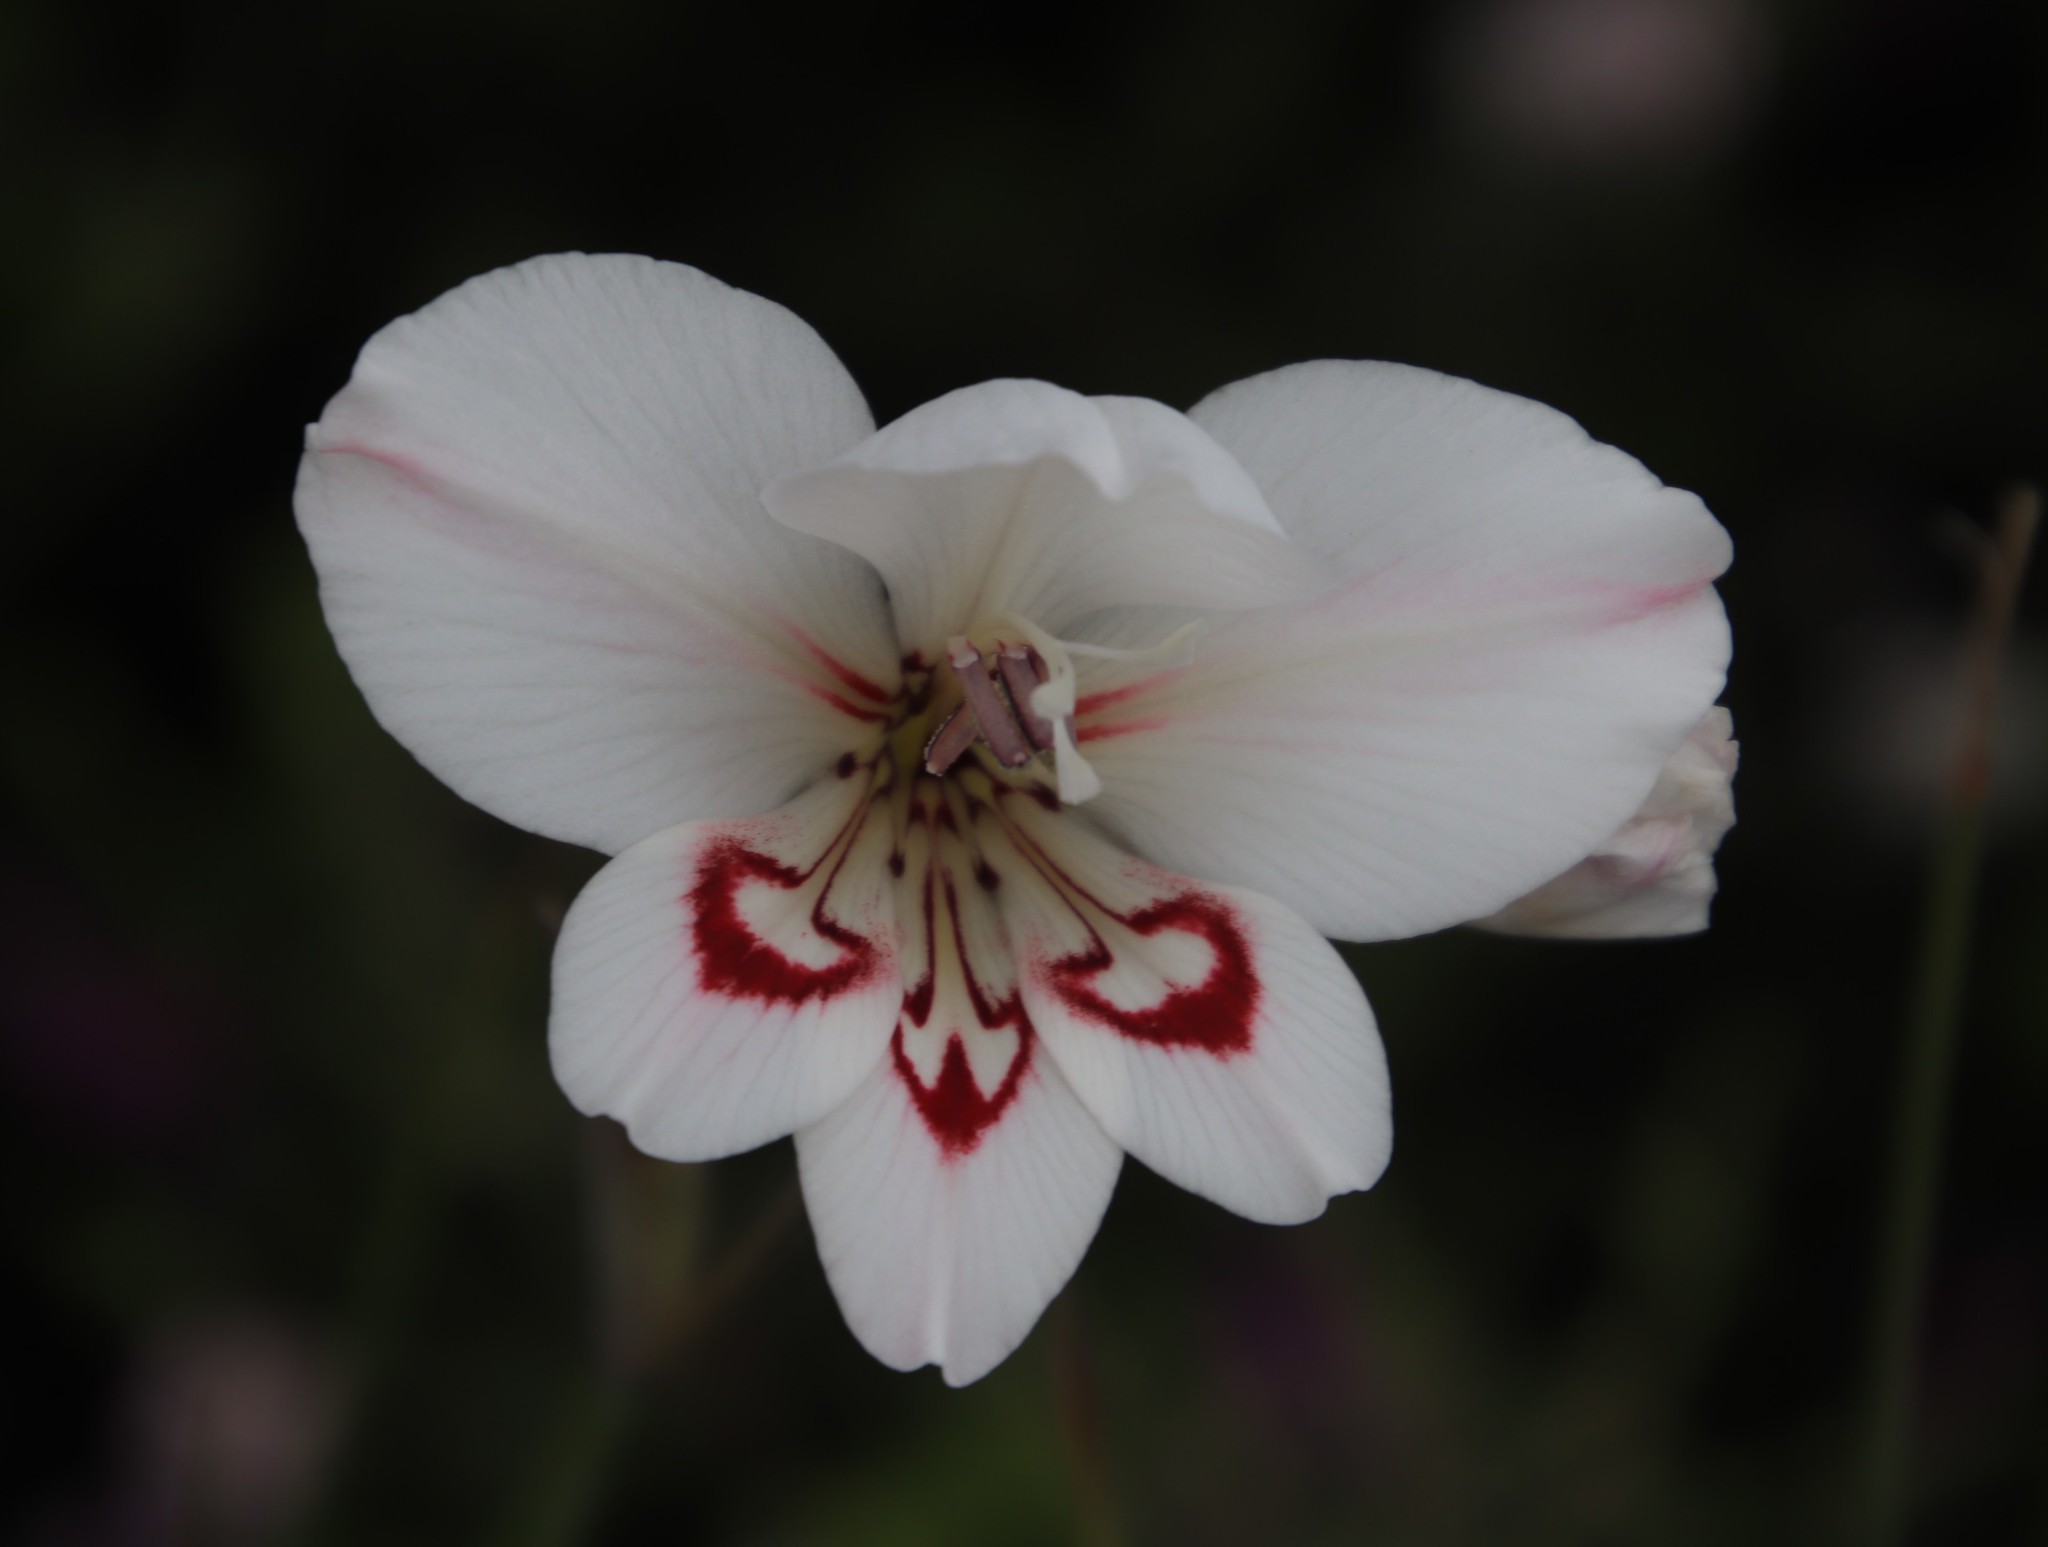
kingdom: Plantae
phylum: Tracheophyta
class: Liliopsida
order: Asparagales
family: Iridaceae
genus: Gladiolus
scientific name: Gladiolus debilis
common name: Painted-lady
